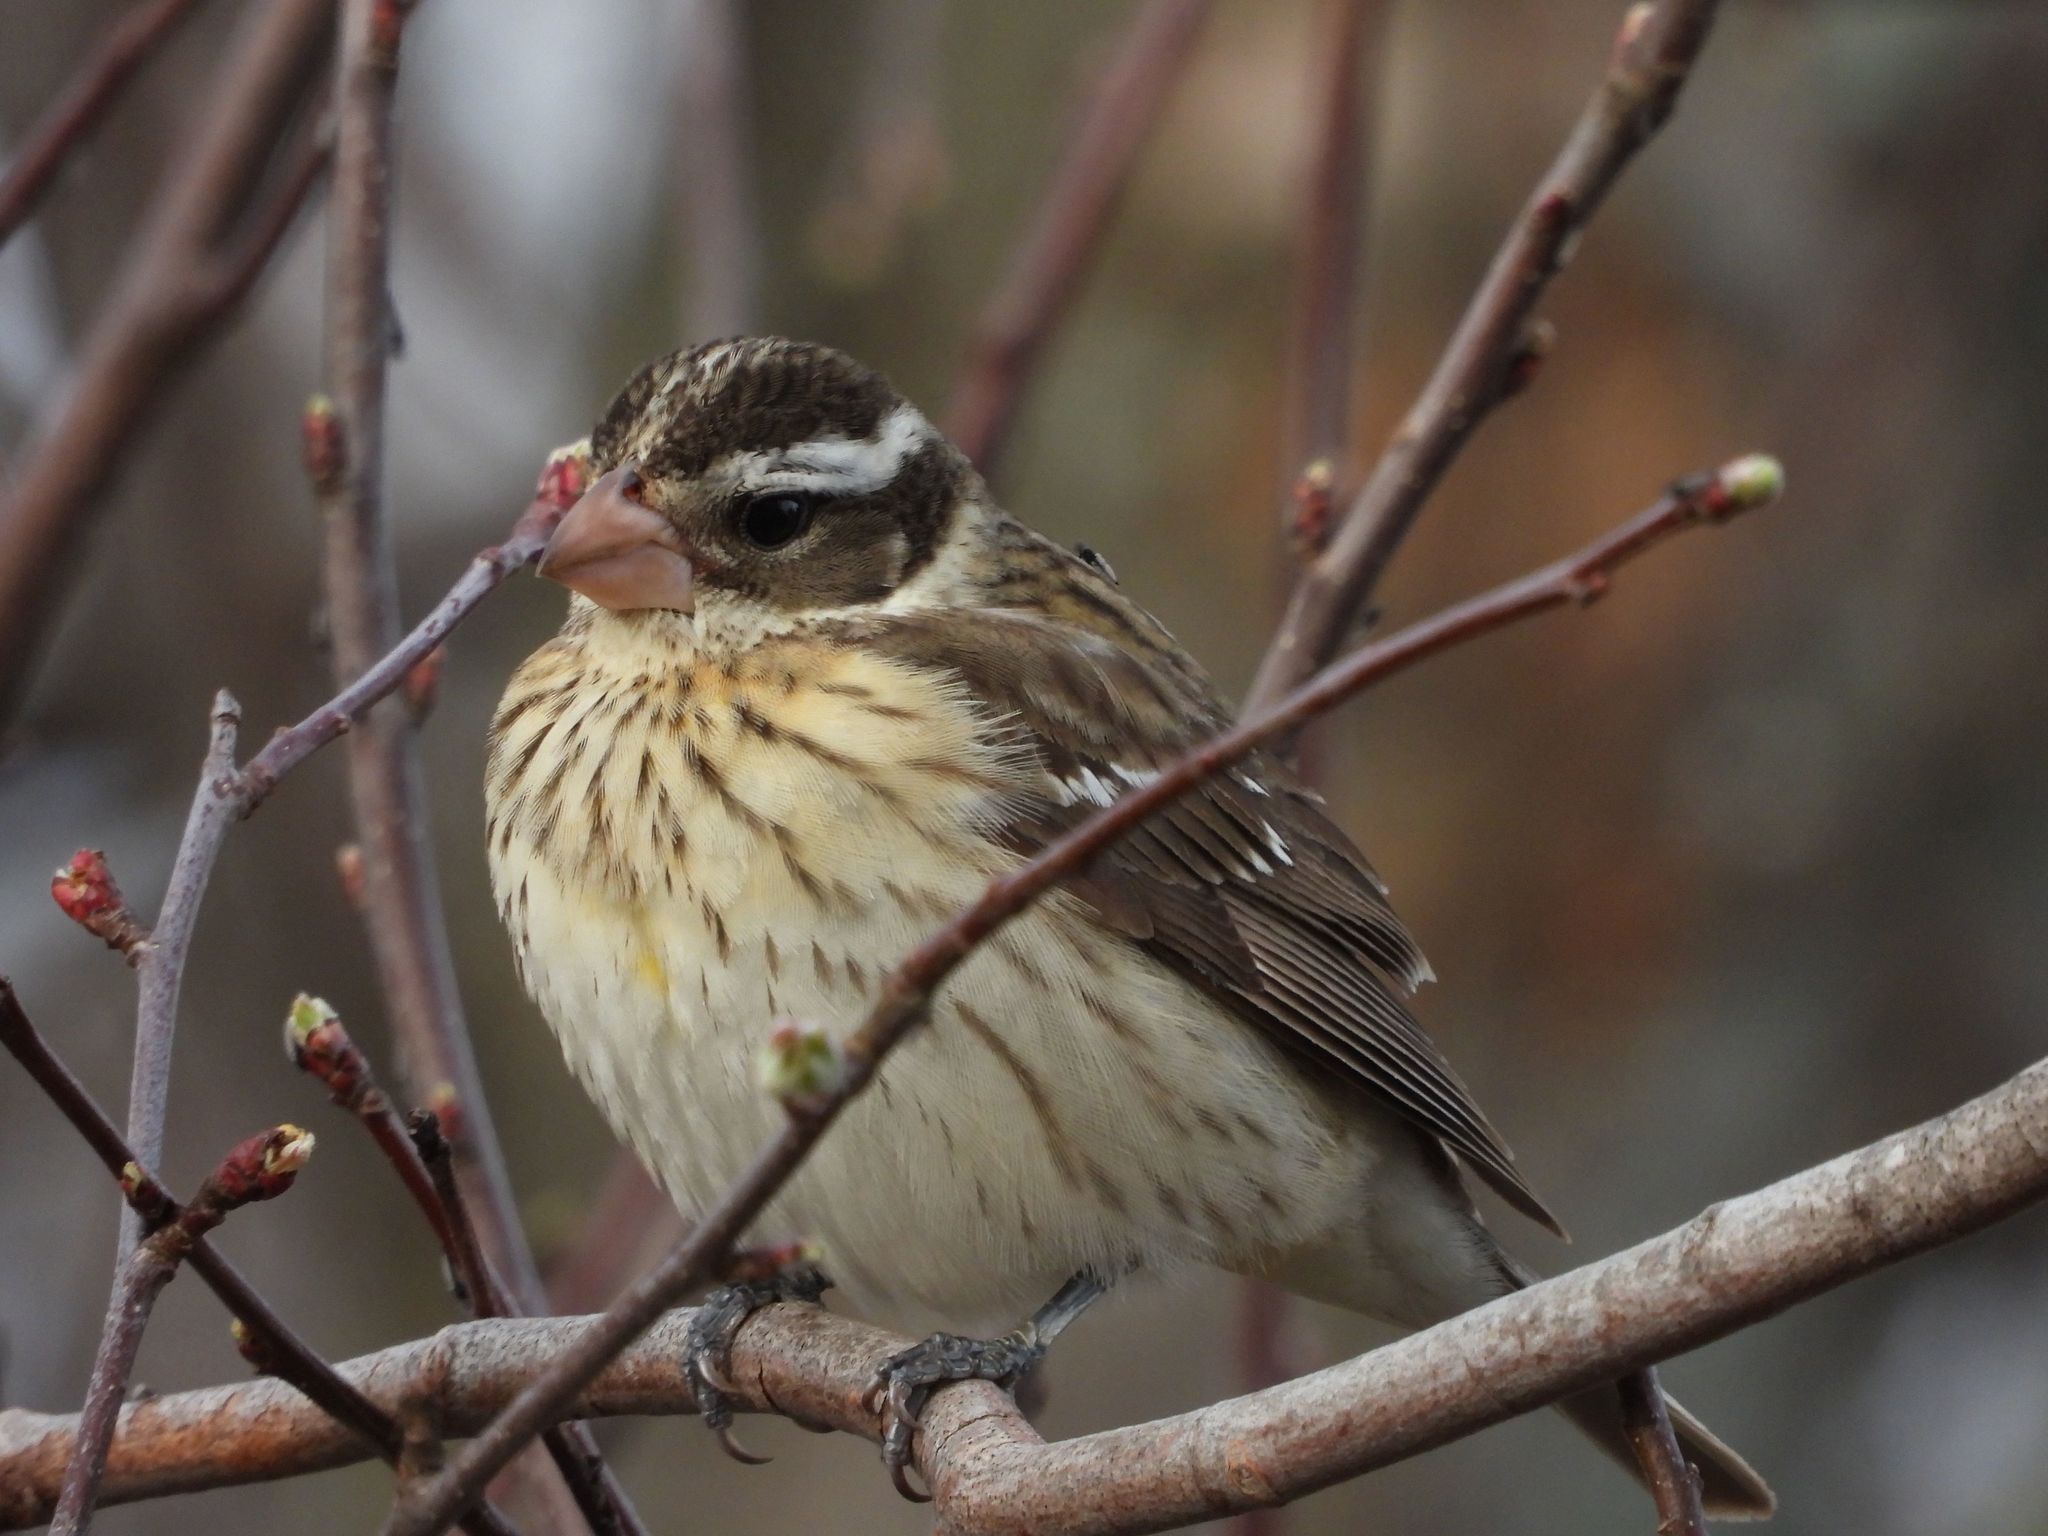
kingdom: Animalia
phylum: Chordata
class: Aves
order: Passeriformes
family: Cardinalidae
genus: Pheucticus
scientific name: Pheucticus ludovicianus
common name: Rose-breasted grosbeak
